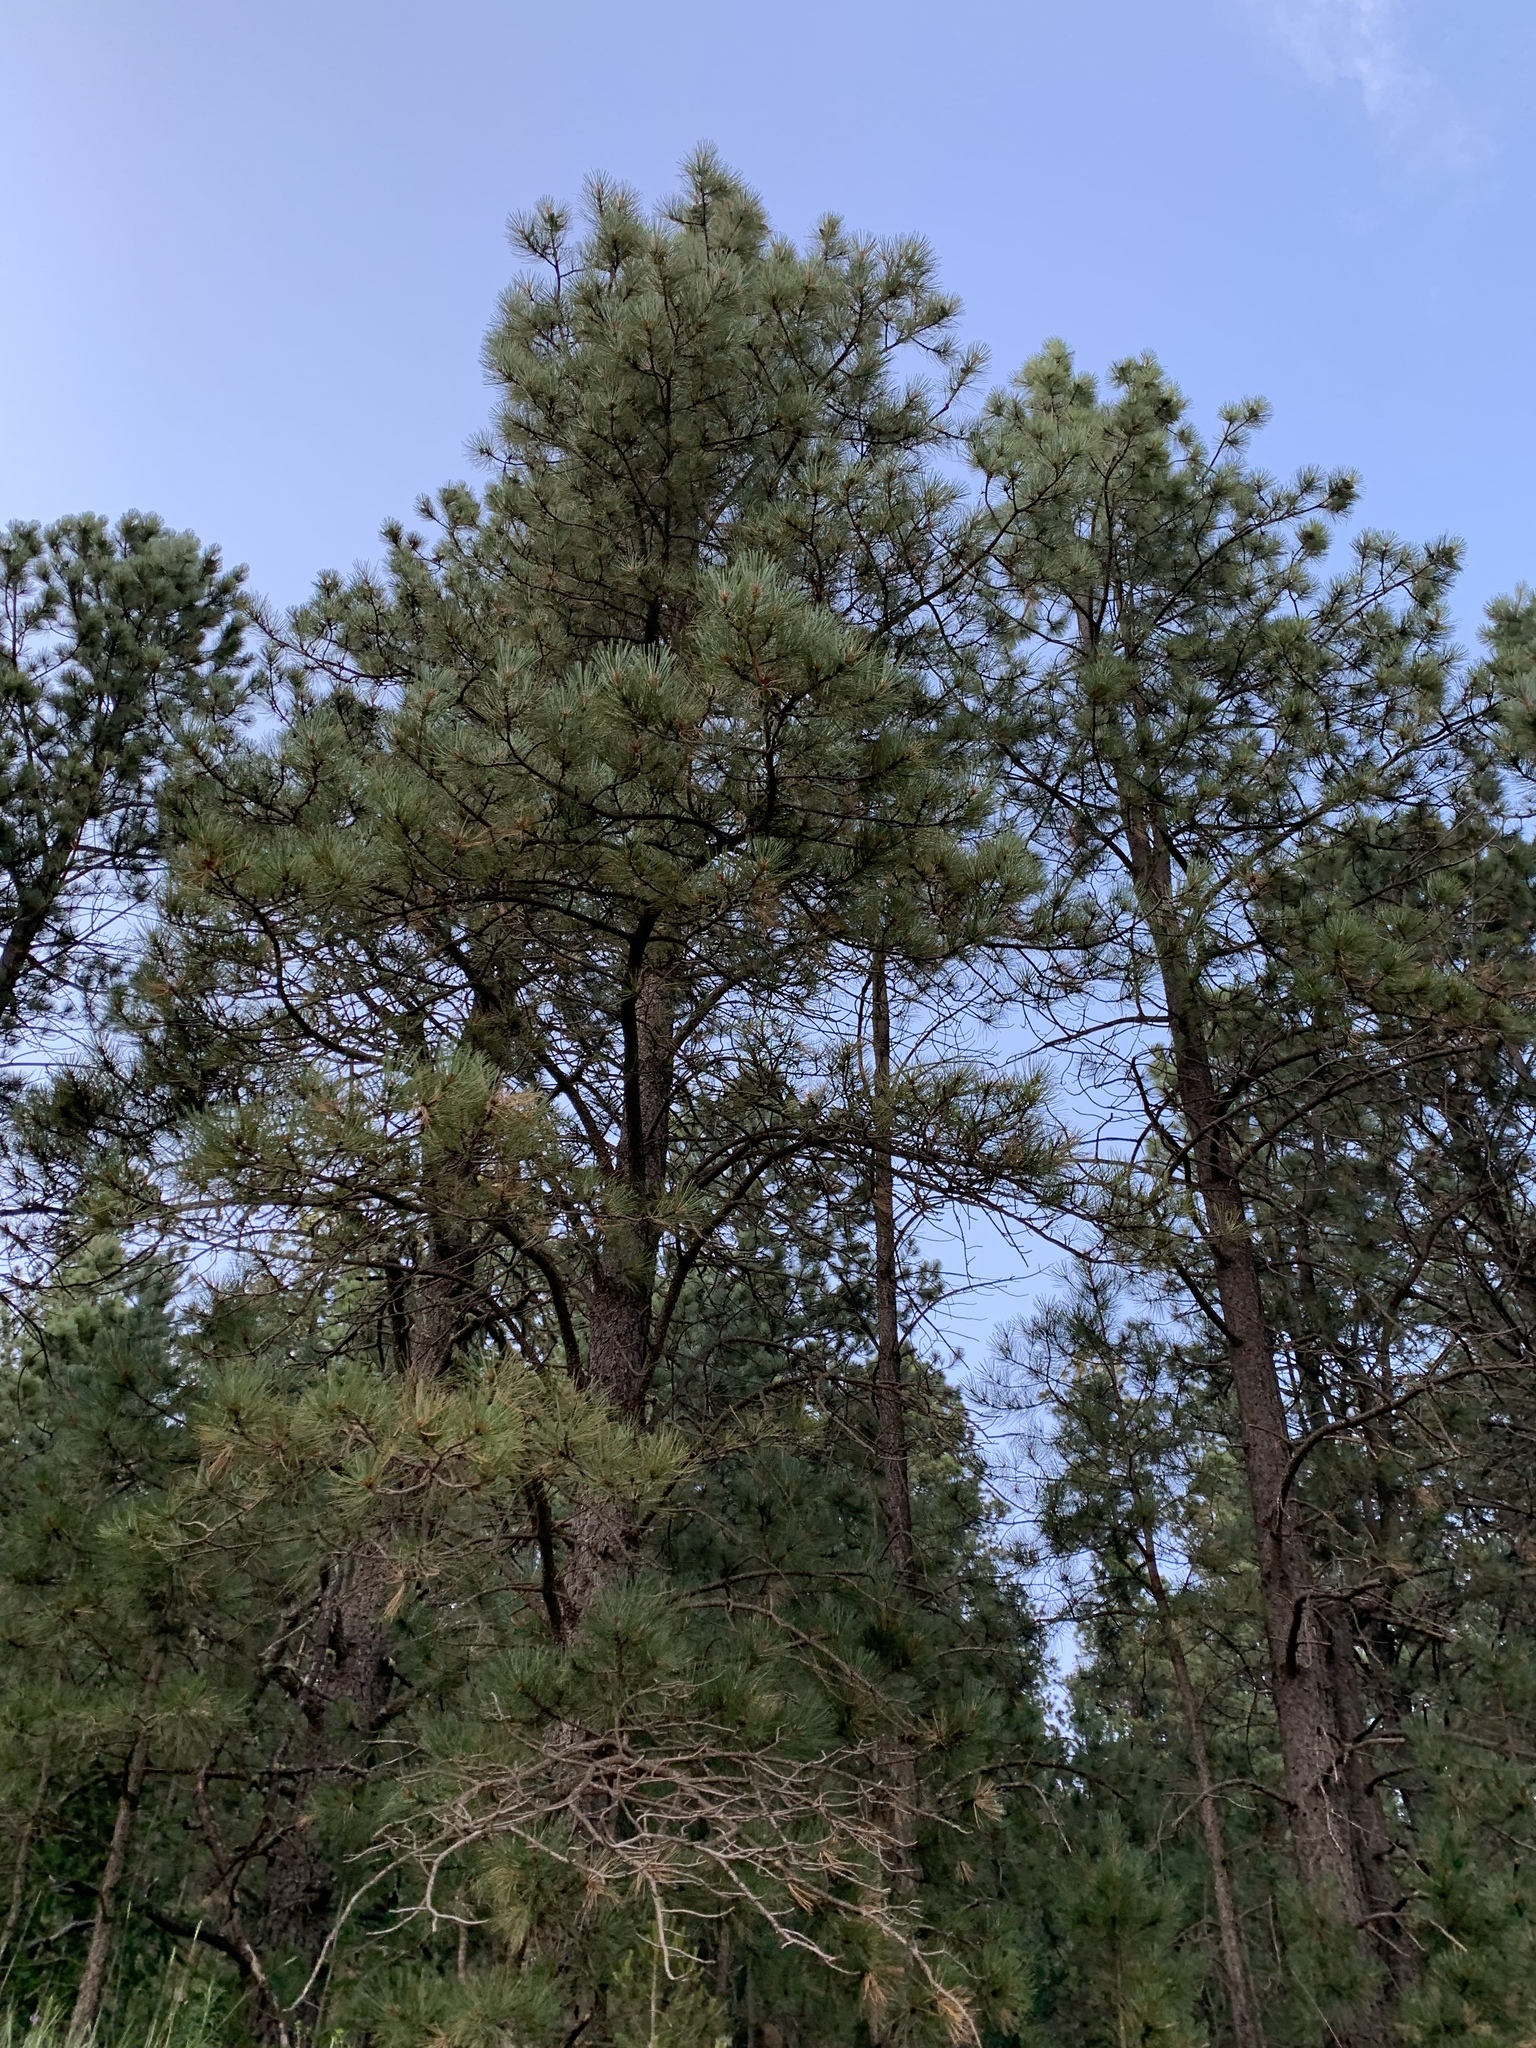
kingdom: Plantae
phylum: Tracheophyta
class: Pinopsida
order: Pinales
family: Pinaceae
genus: Pinus
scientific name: Pinus ponderosa
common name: Western yellow-pine
